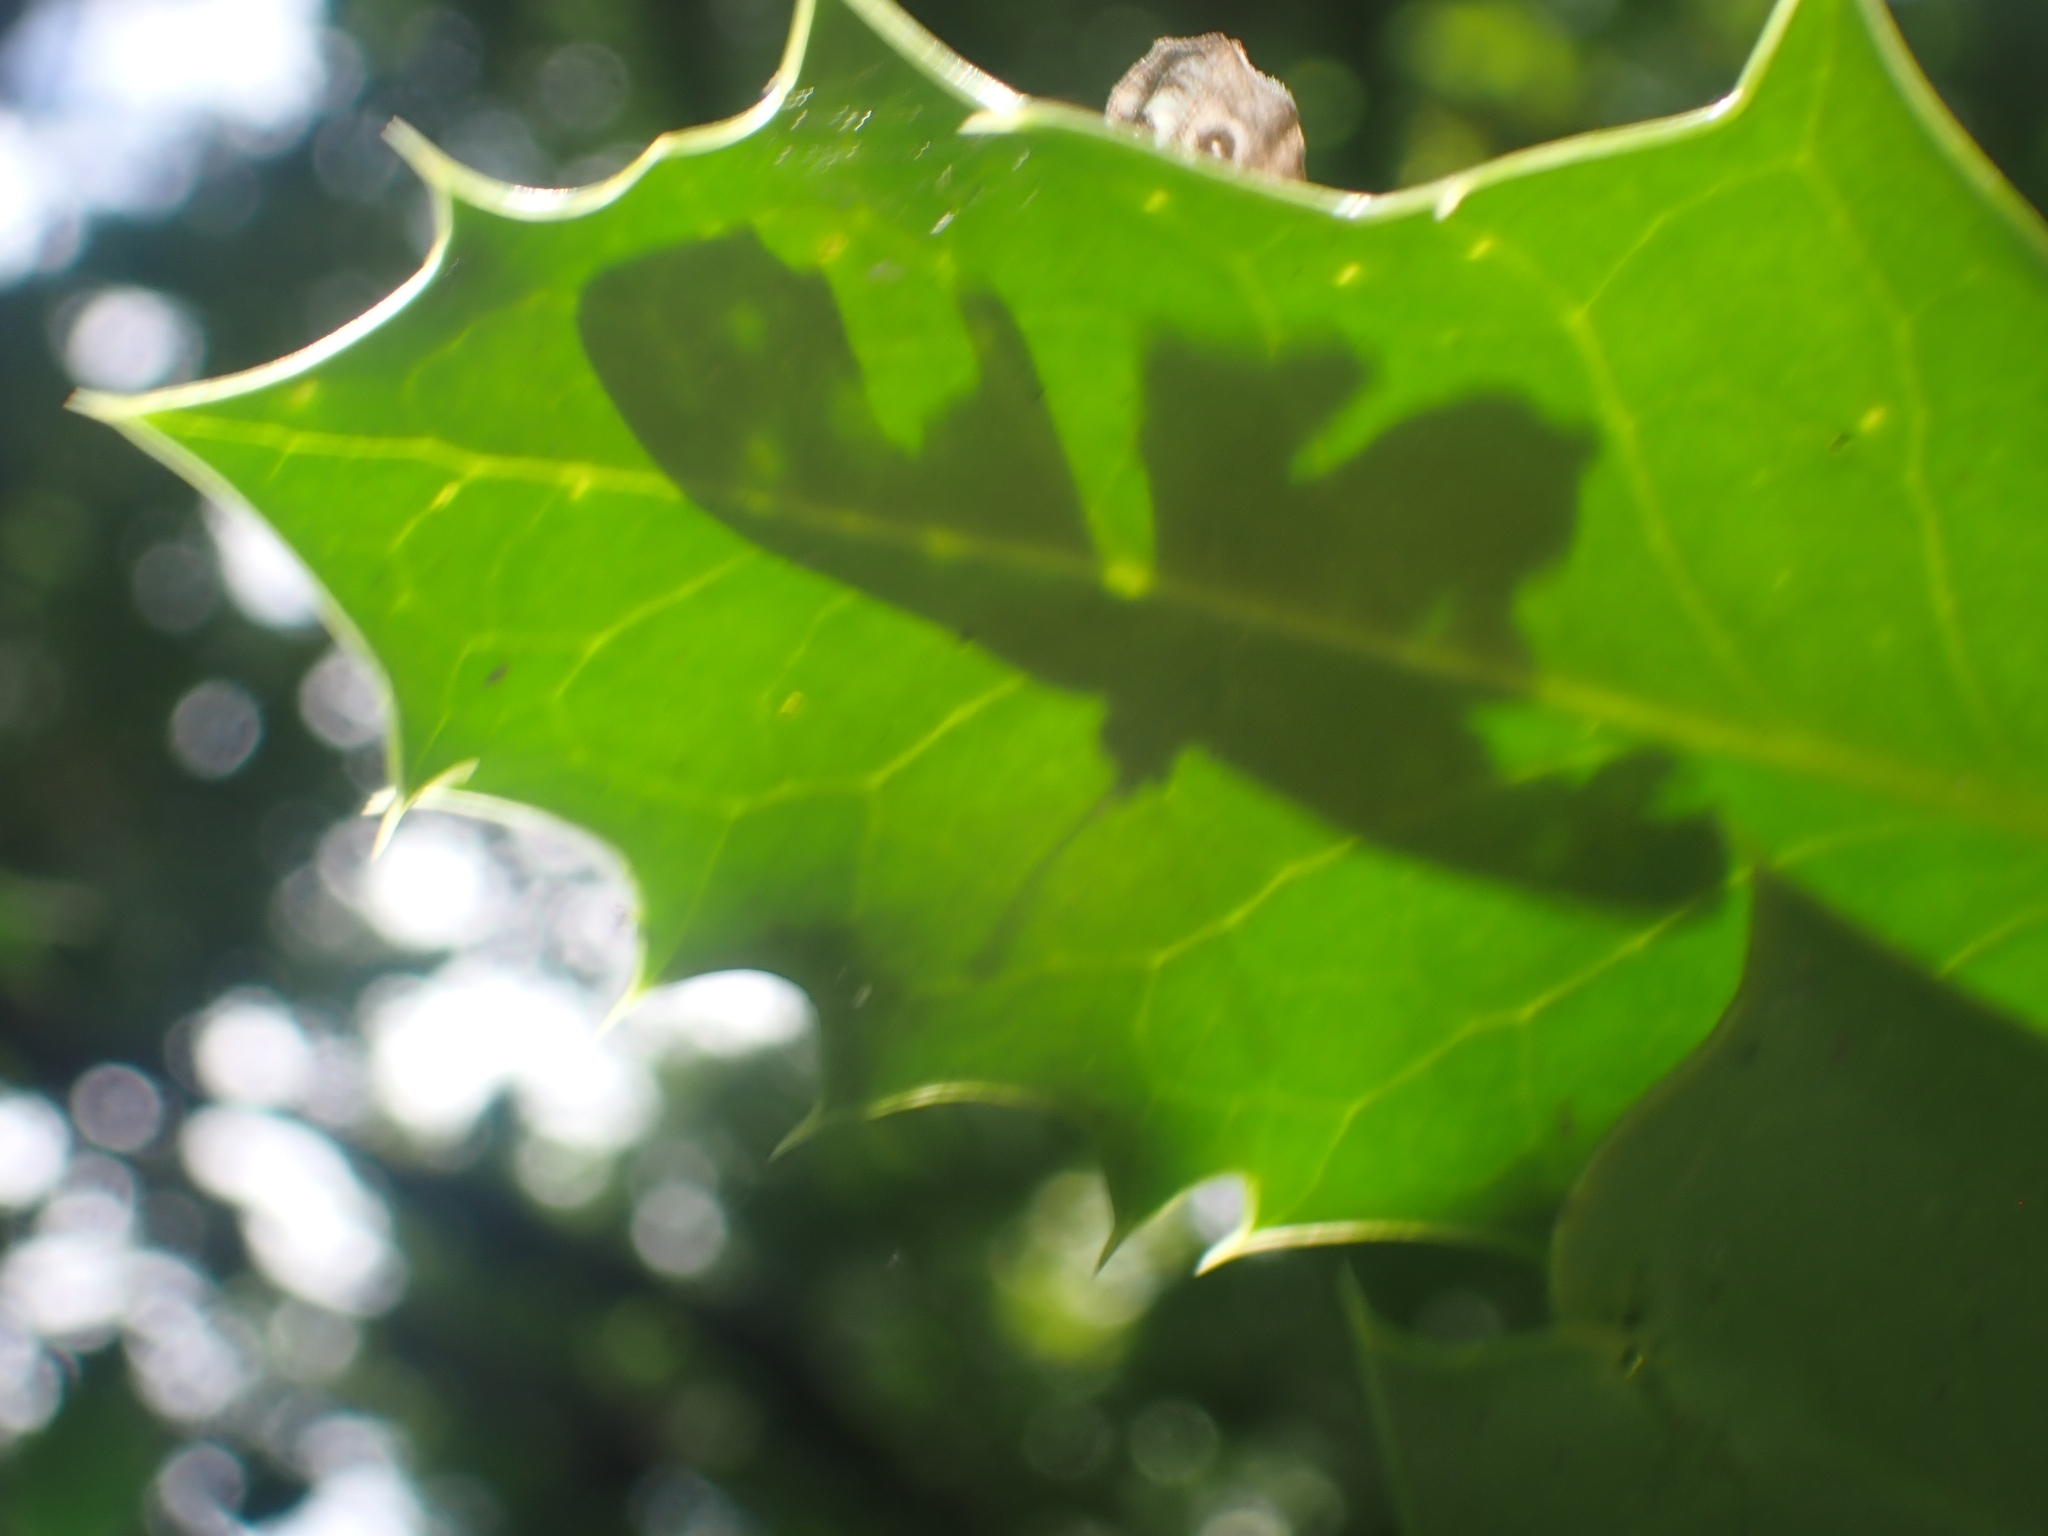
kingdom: Animalia
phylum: Arthropoda
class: Insecta
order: Lepidoptera
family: Nymphalidae
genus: Pararge
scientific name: Pararge aegeria
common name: Speckled wood
